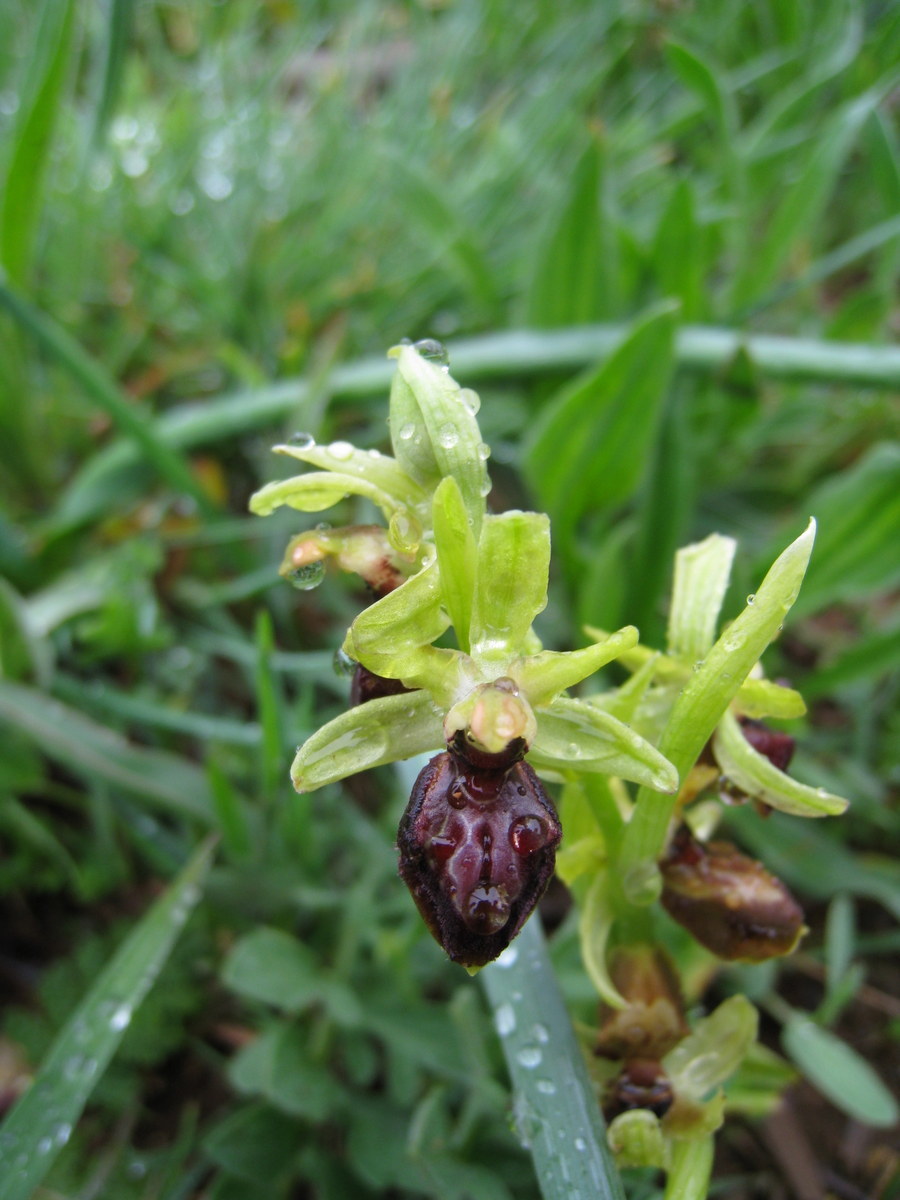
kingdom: Plantae
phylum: Tracheophyta
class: Liliopsida
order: Asparagales
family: Orchidaceae
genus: Ophrys
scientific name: Ophrys sphegodes
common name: Early spider-orchid
